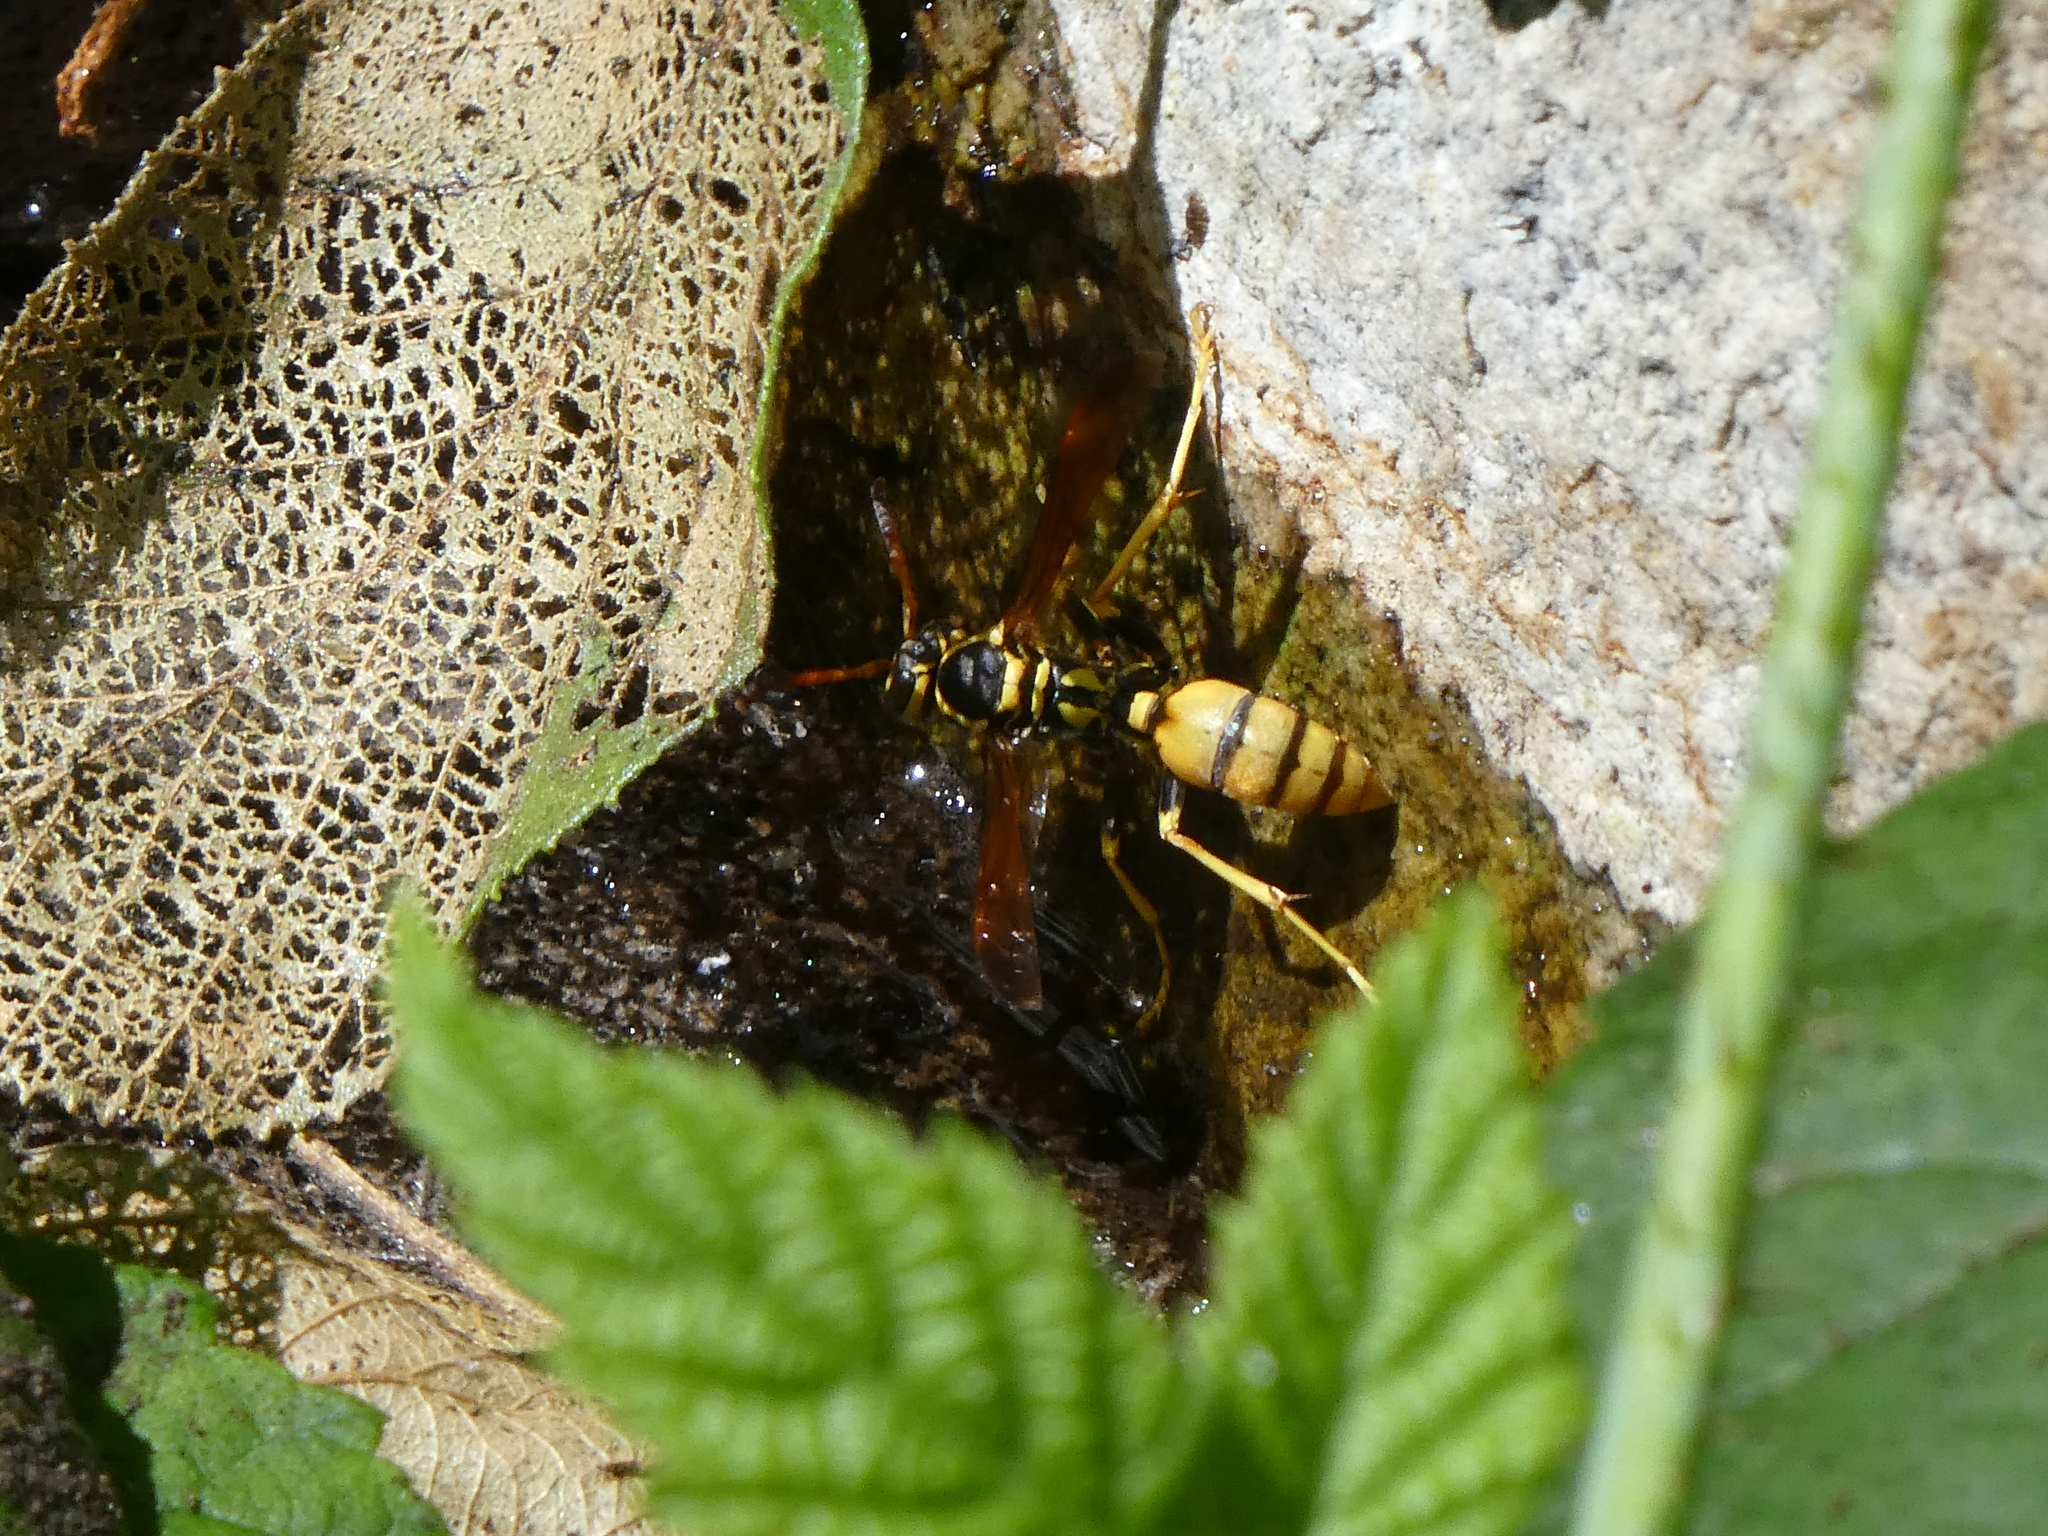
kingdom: Animalia
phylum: Arthropoda
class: Insecta
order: Hymenoptera
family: Vespidae
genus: Mischocyttarus
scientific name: Mischocyttarus flavitarsis
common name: Wasp
